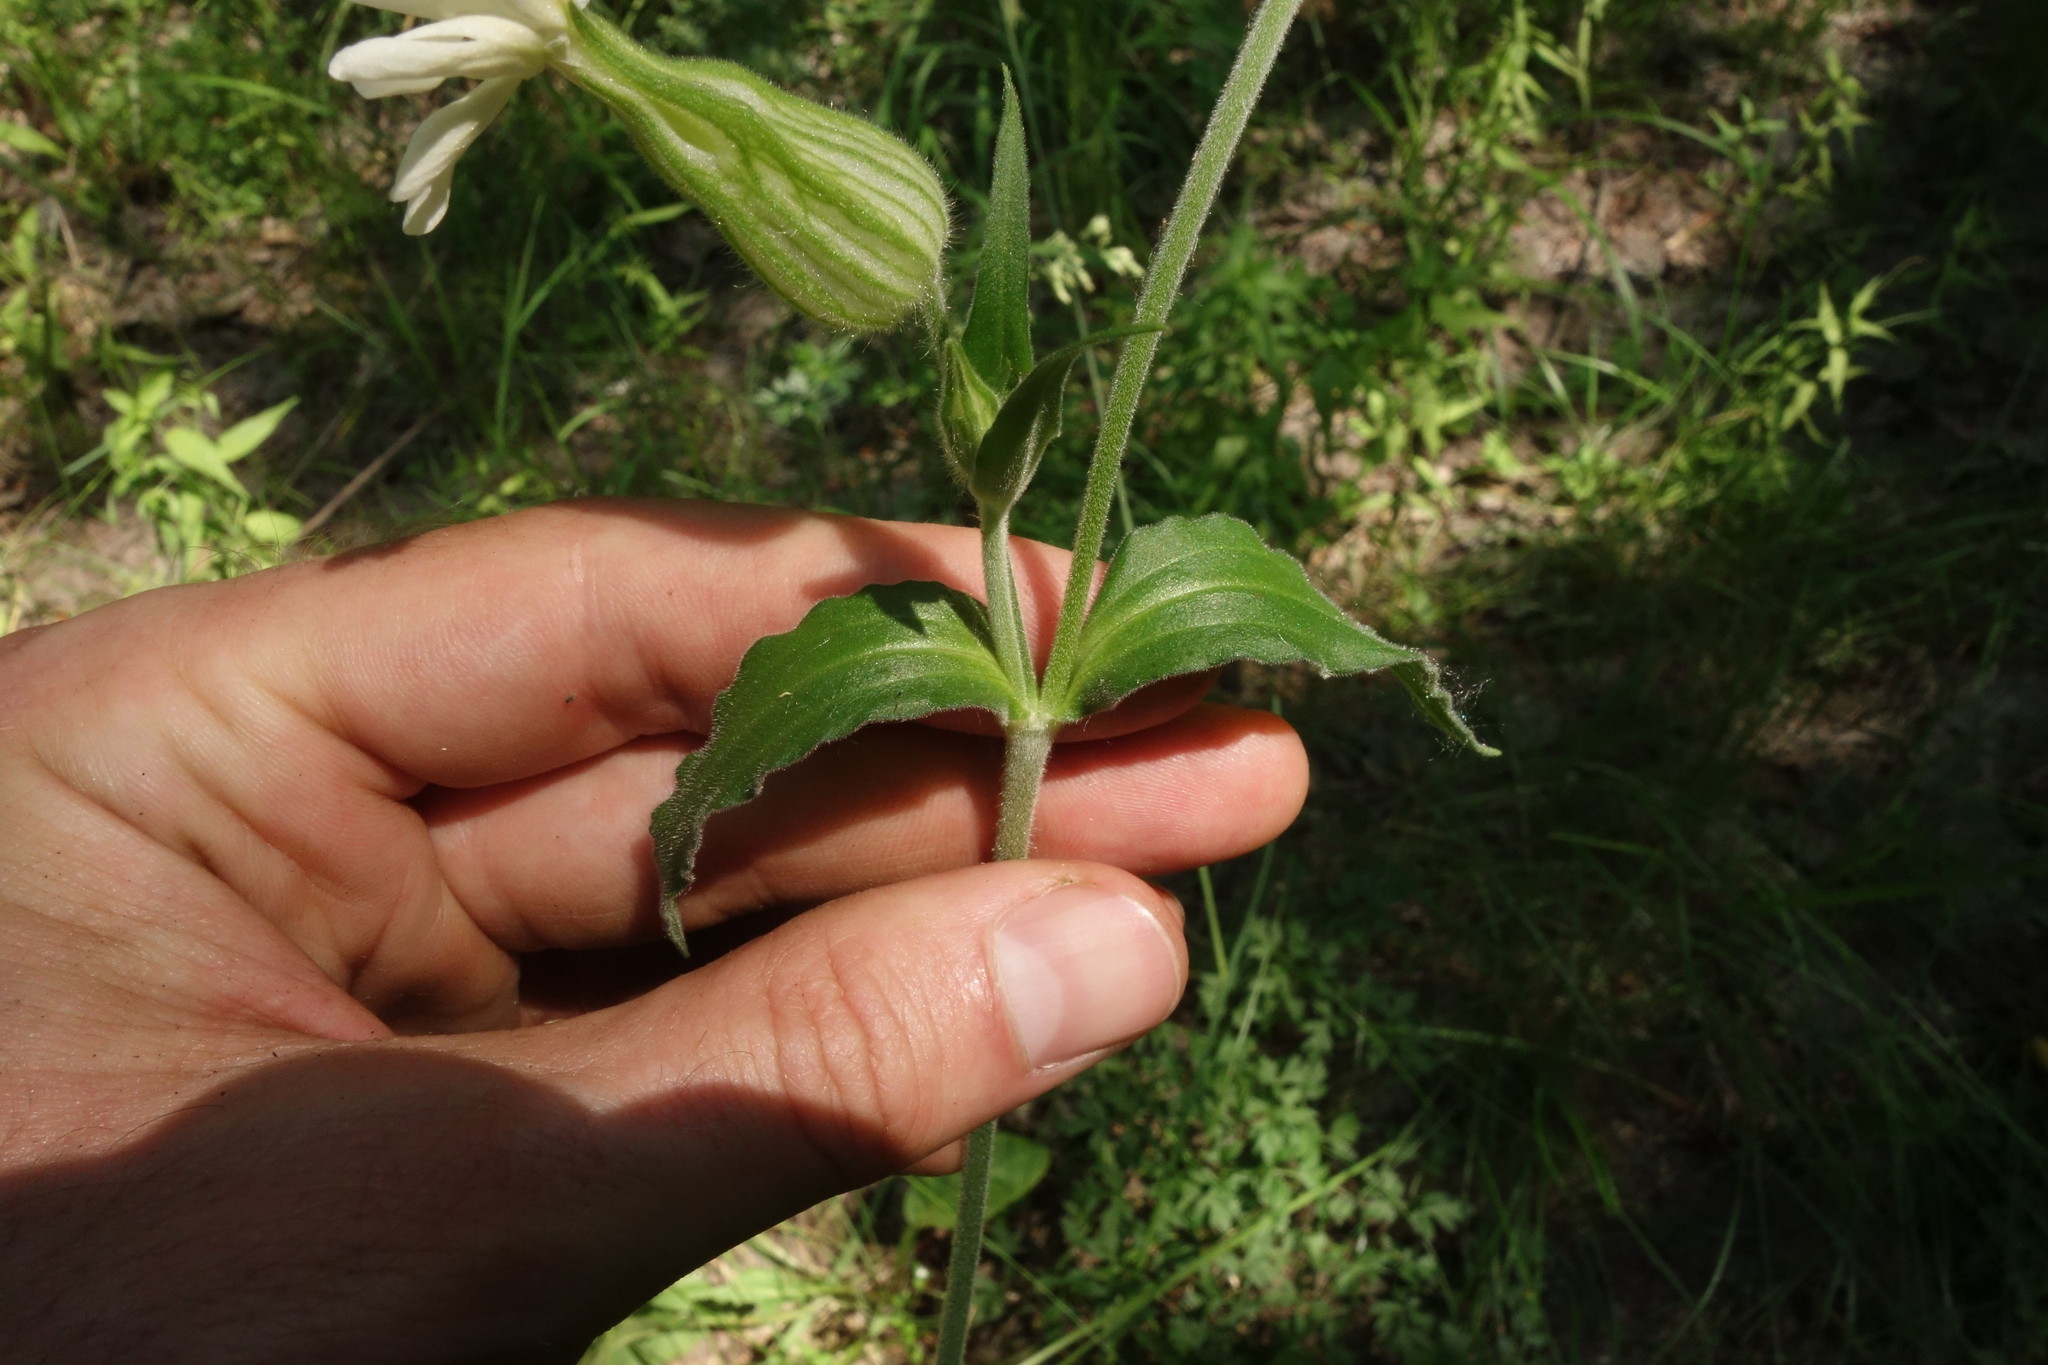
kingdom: Plantae
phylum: Tracheophyta
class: Magnoliopsida
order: Caryophyllales
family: Caryophyllaceae
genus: Silene
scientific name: Silene latifolia
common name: White campion
